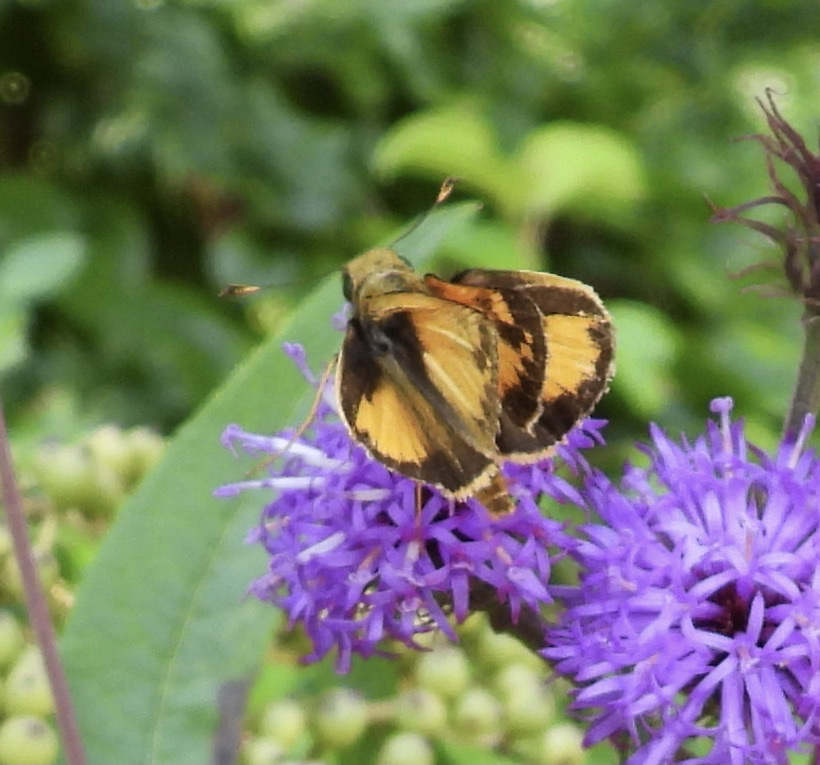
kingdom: Animalia
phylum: Arthropoda
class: Insecta
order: Lepidoptera
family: Hesperiidae
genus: Lon
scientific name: Lon zabulon
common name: Zabulon skipper
